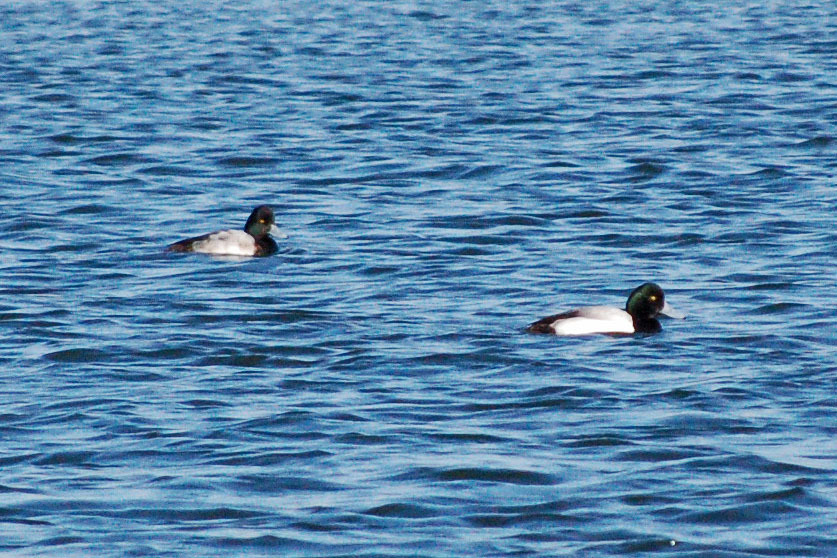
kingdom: Animalia
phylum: Chordata
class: Aves
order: Anseriformes
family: Anatidae
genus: Aythya
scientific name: Aythya marila
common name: Greater scaup
